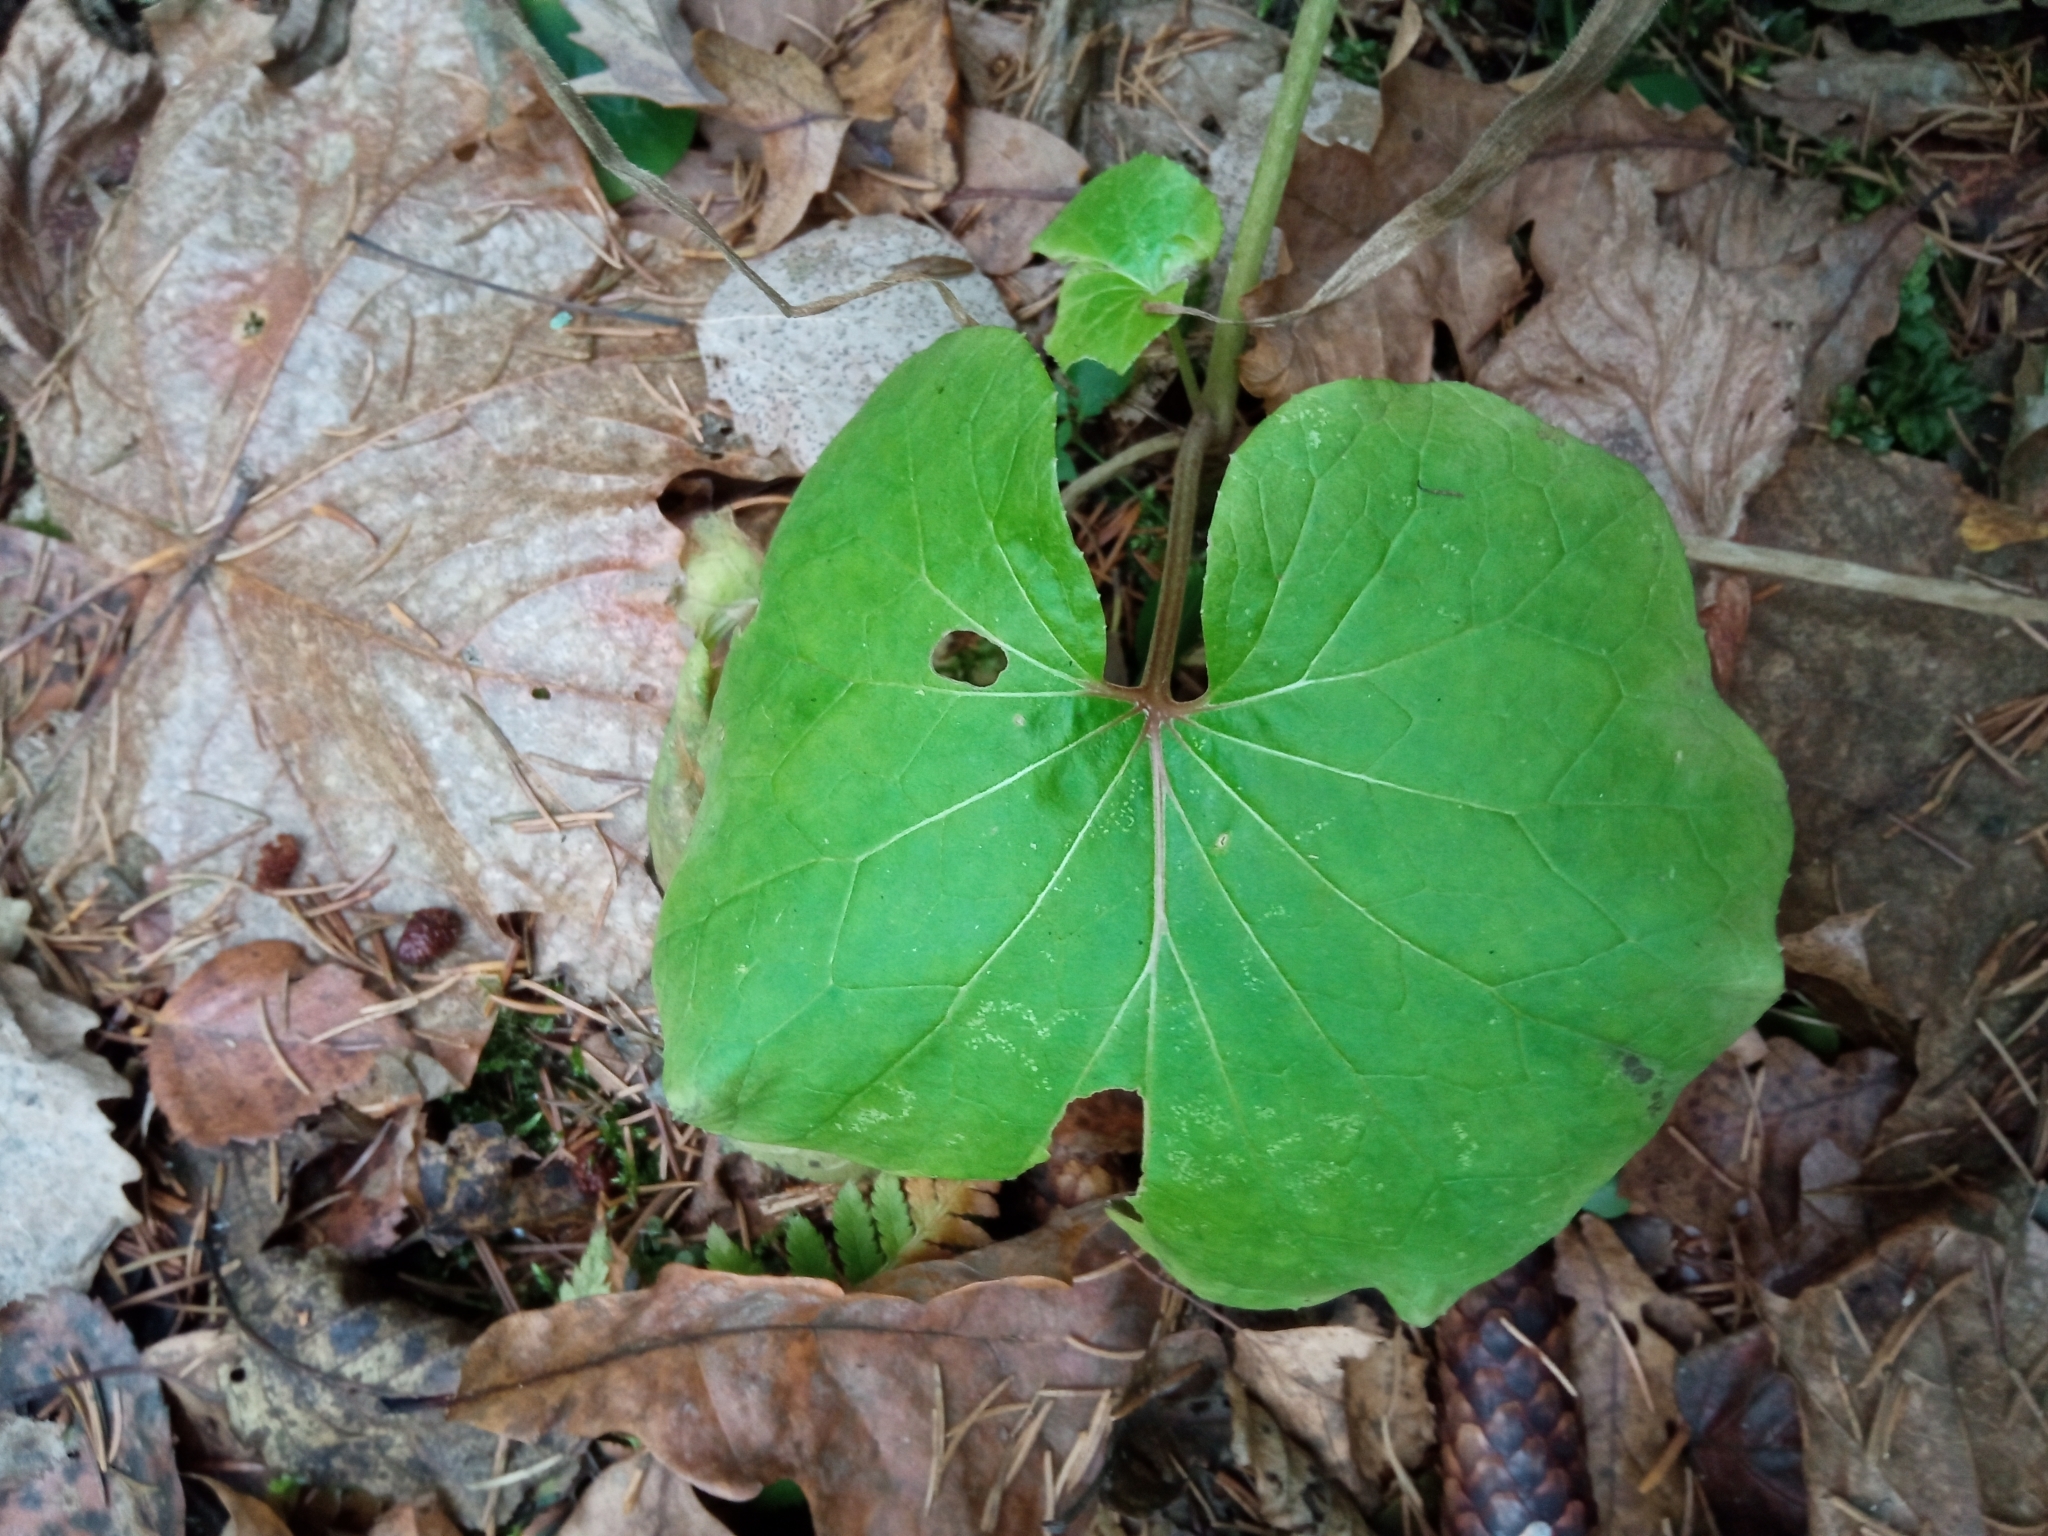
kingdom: Plantae
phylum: Tracheophyta
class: Magnoliopsida
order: Asterales
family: Asteraceae
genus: Tussilago
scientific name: Tussilago farfara
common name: Coltsfoot
